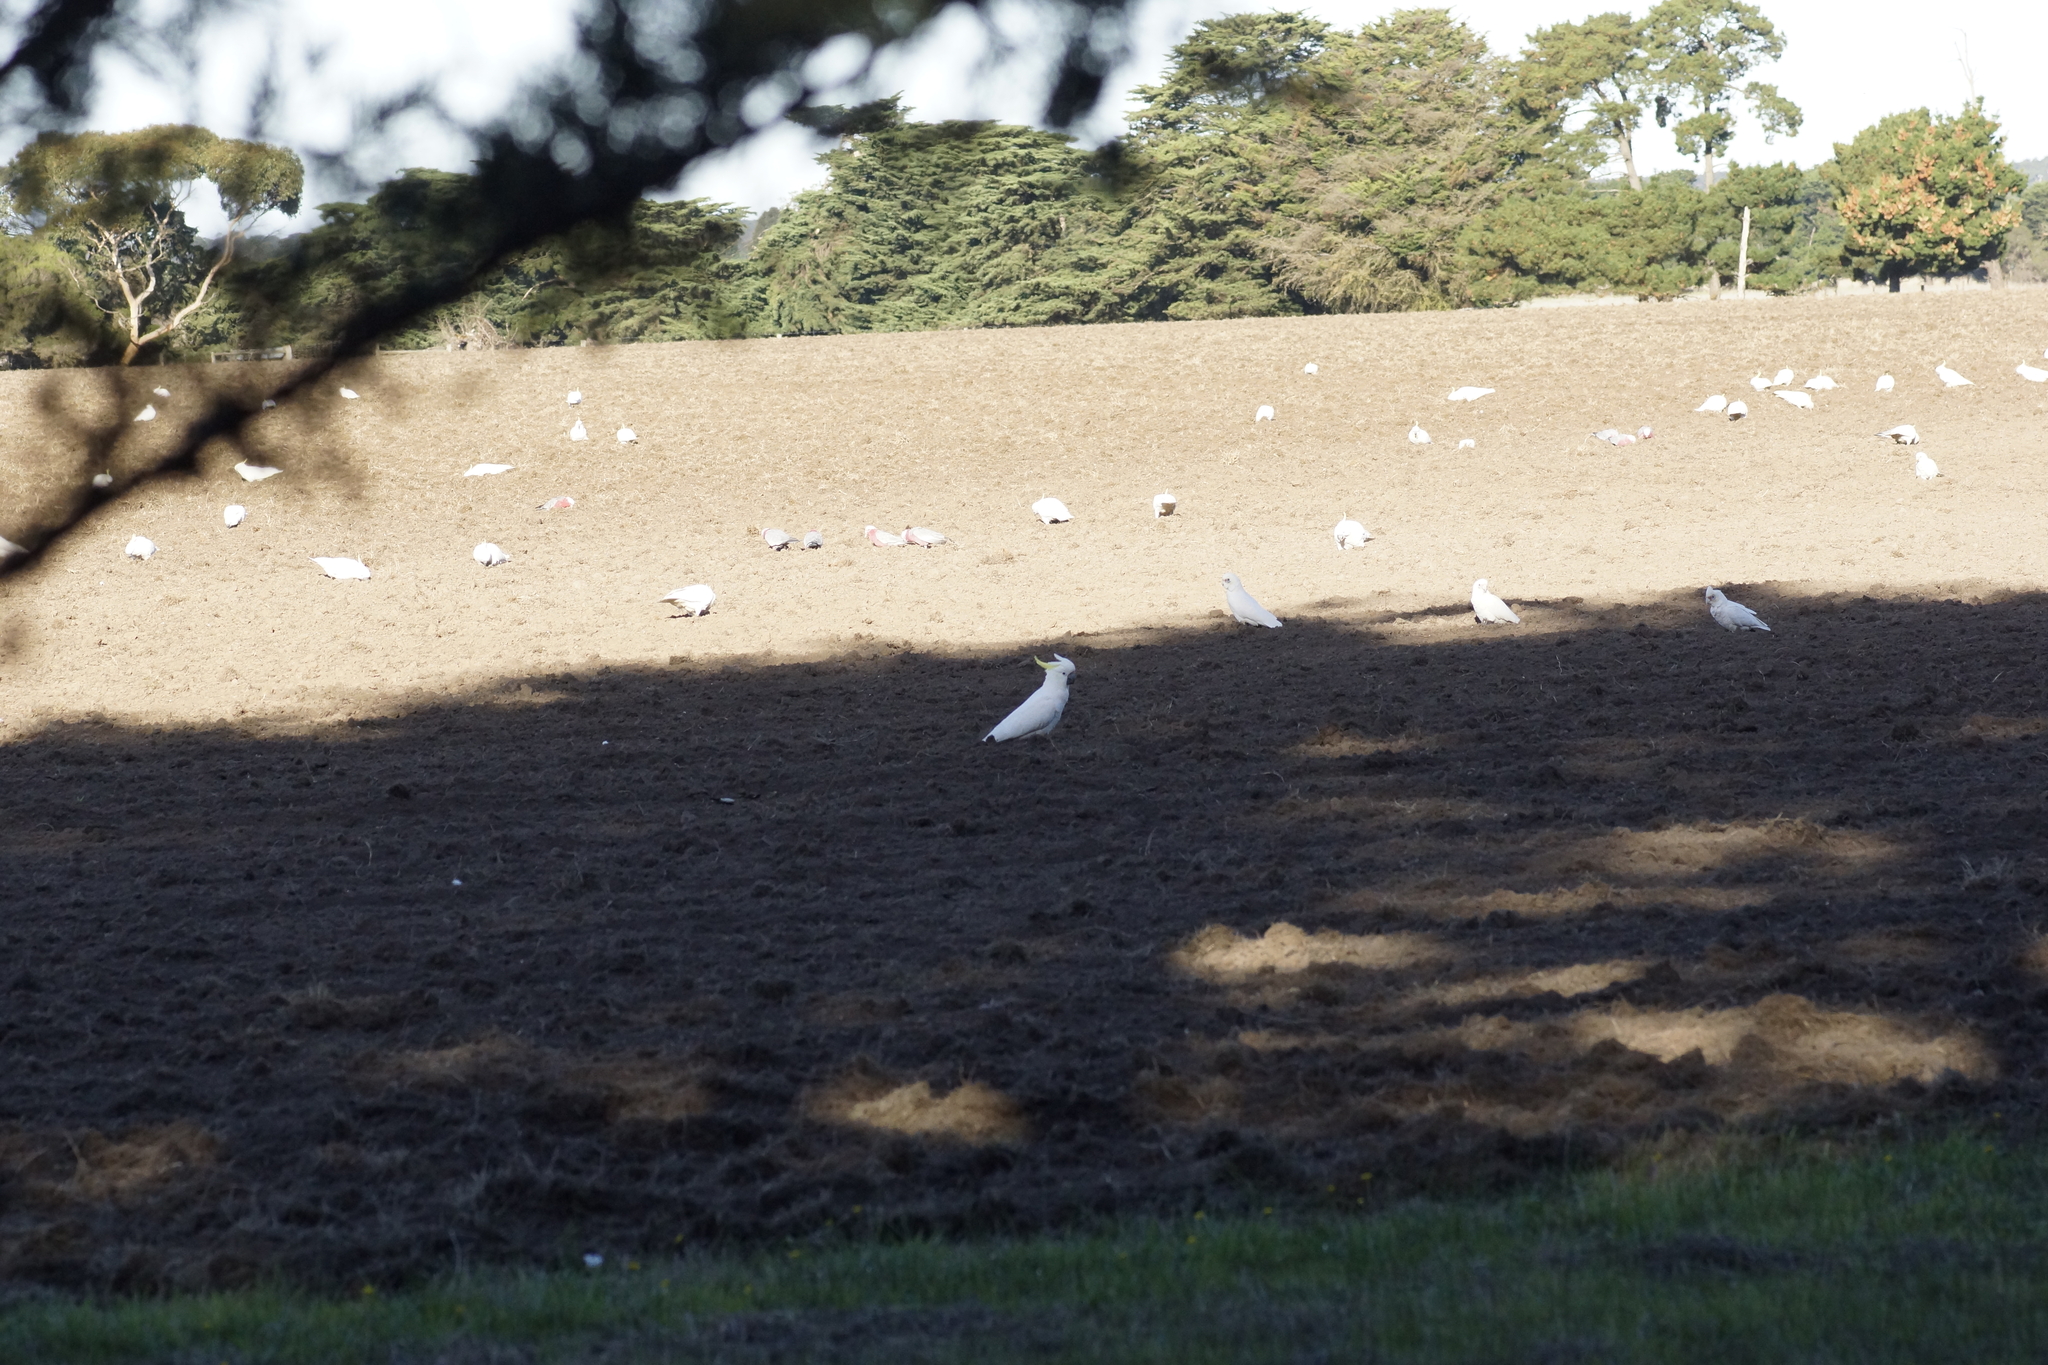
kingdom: Animalia
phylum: Chordata
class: Aves
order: Psittaciformes
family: Psittacidae
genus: Cacatua
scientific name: Cacatua sanguinea
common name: Little corella
